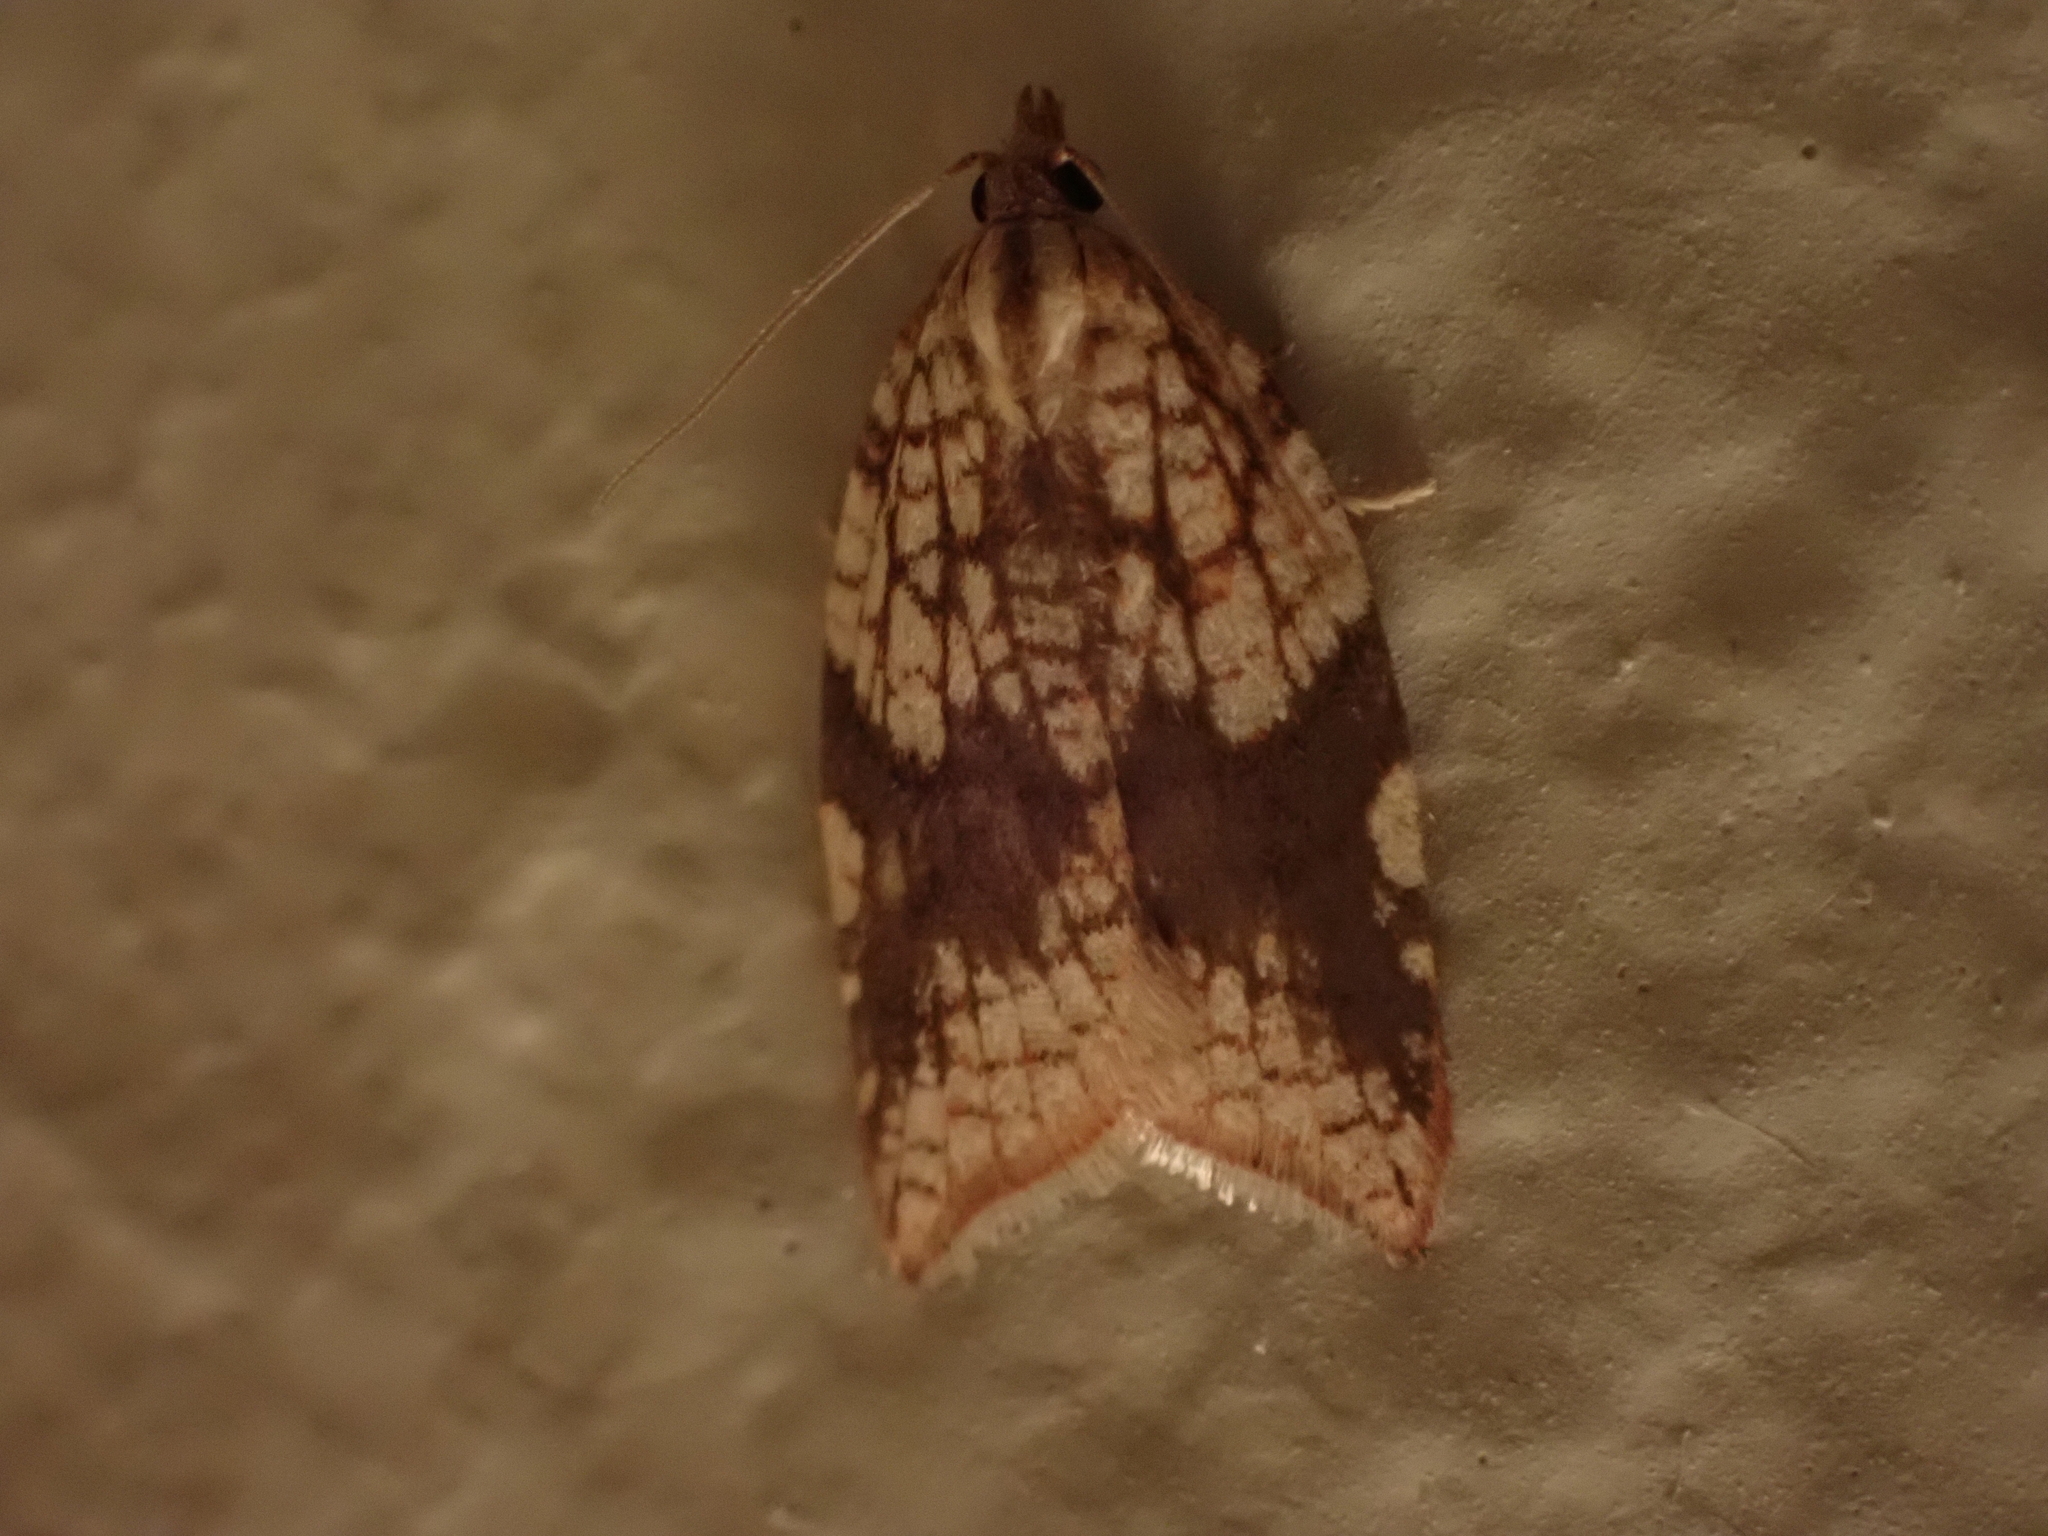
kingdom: Animalia
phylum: Arthropoda
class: Insecta
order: Lepidoptera
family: Tortricidae
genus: Acleris
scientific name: Acleris rhombana
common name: Tortricid moth
